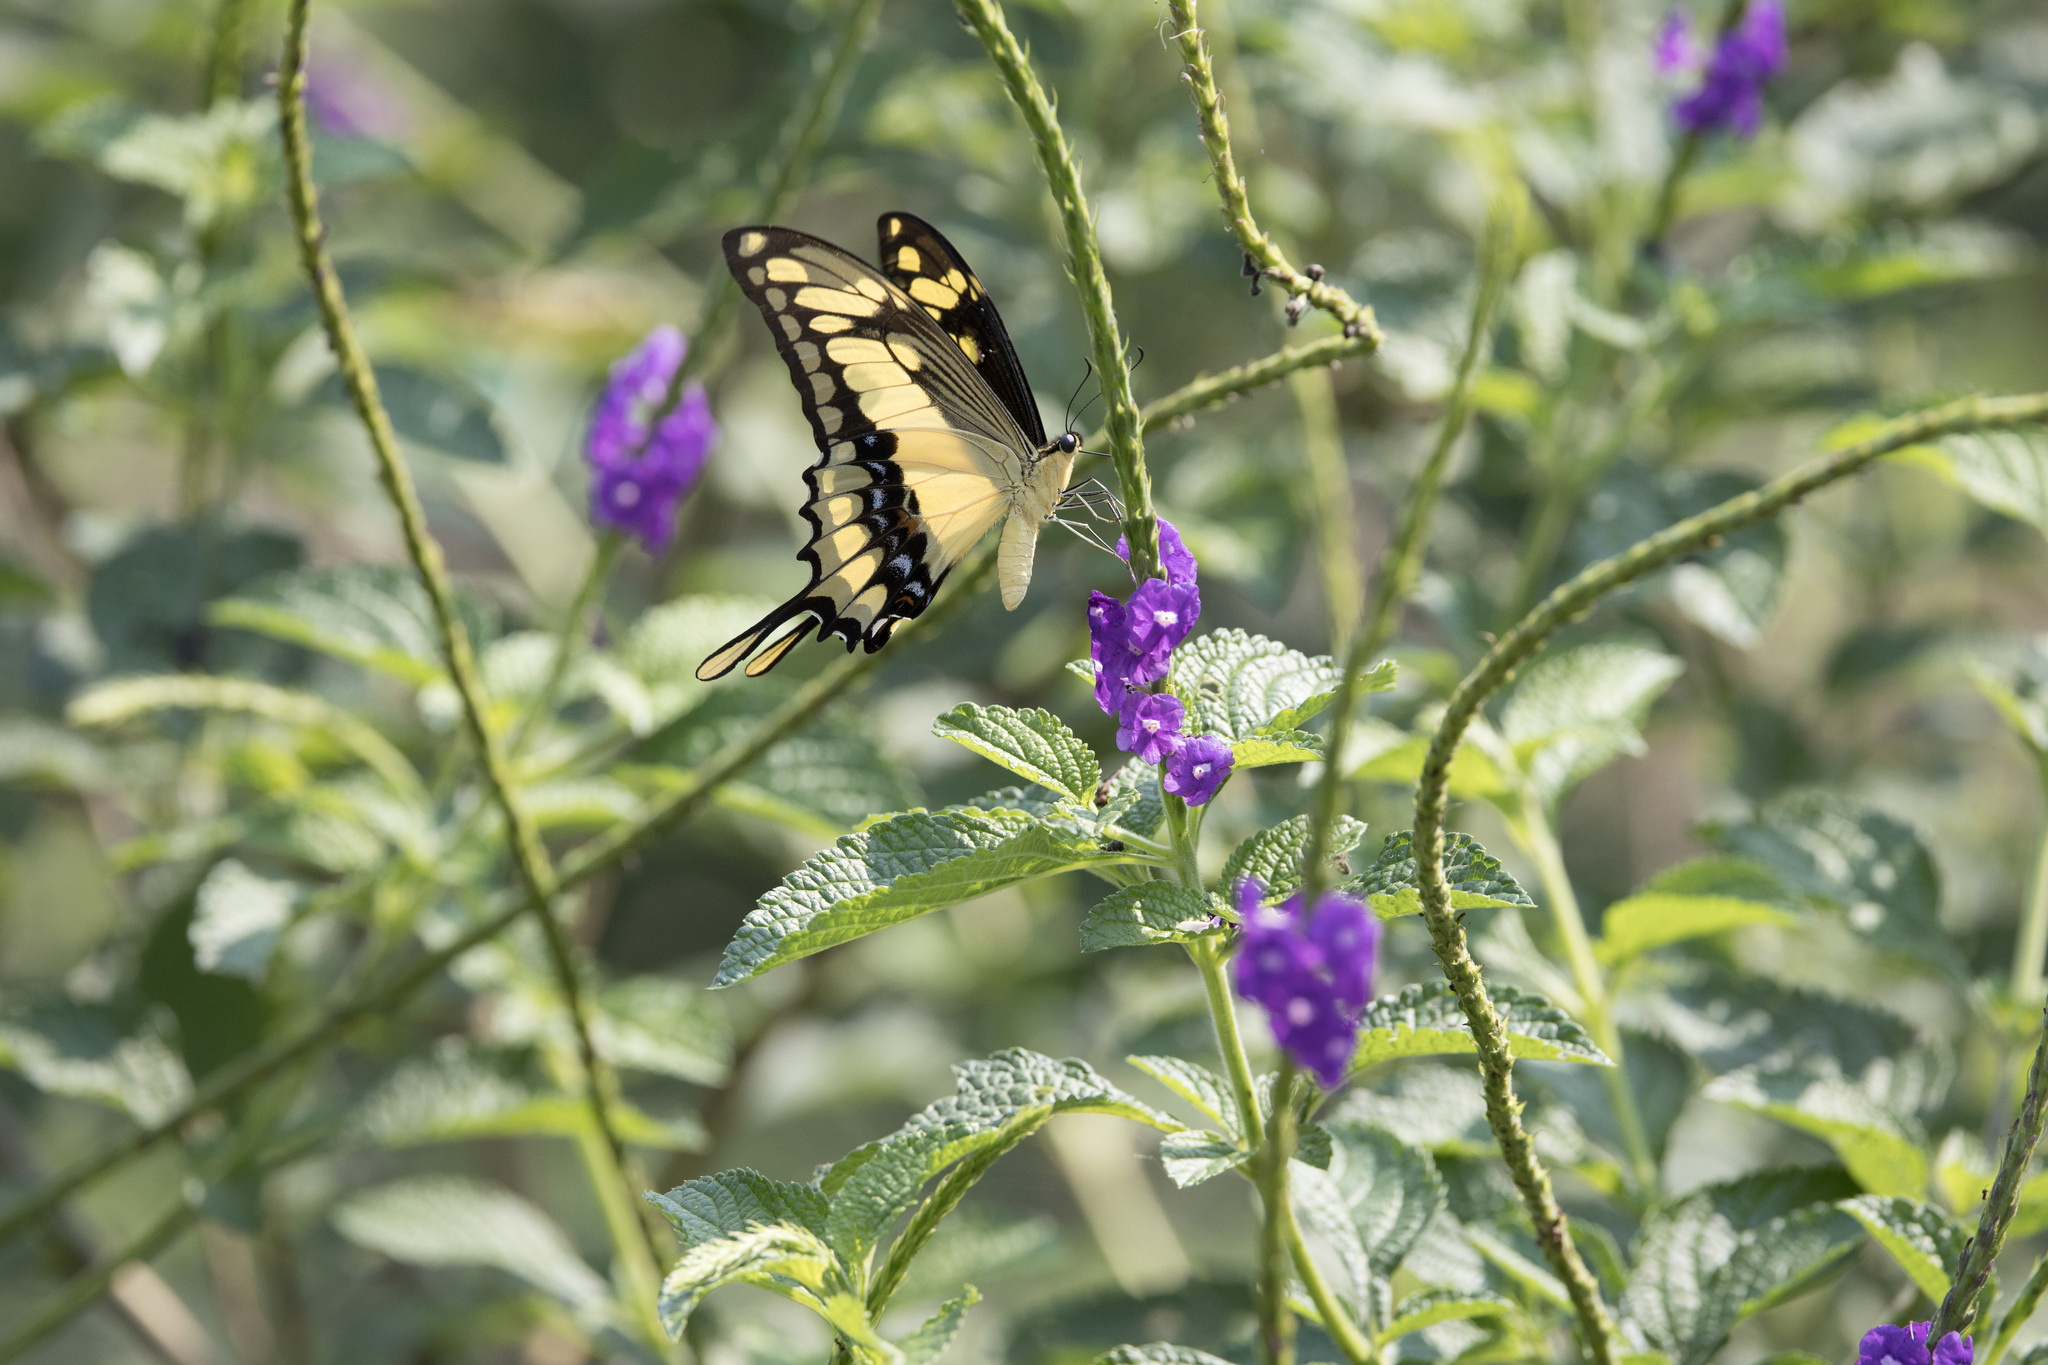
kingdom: Animalia
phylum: Arthropoda
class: Insecta
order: Lepidoptera
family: Papilionidae
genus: Papilio
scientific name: Papilio thoas
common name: King swallowtail
